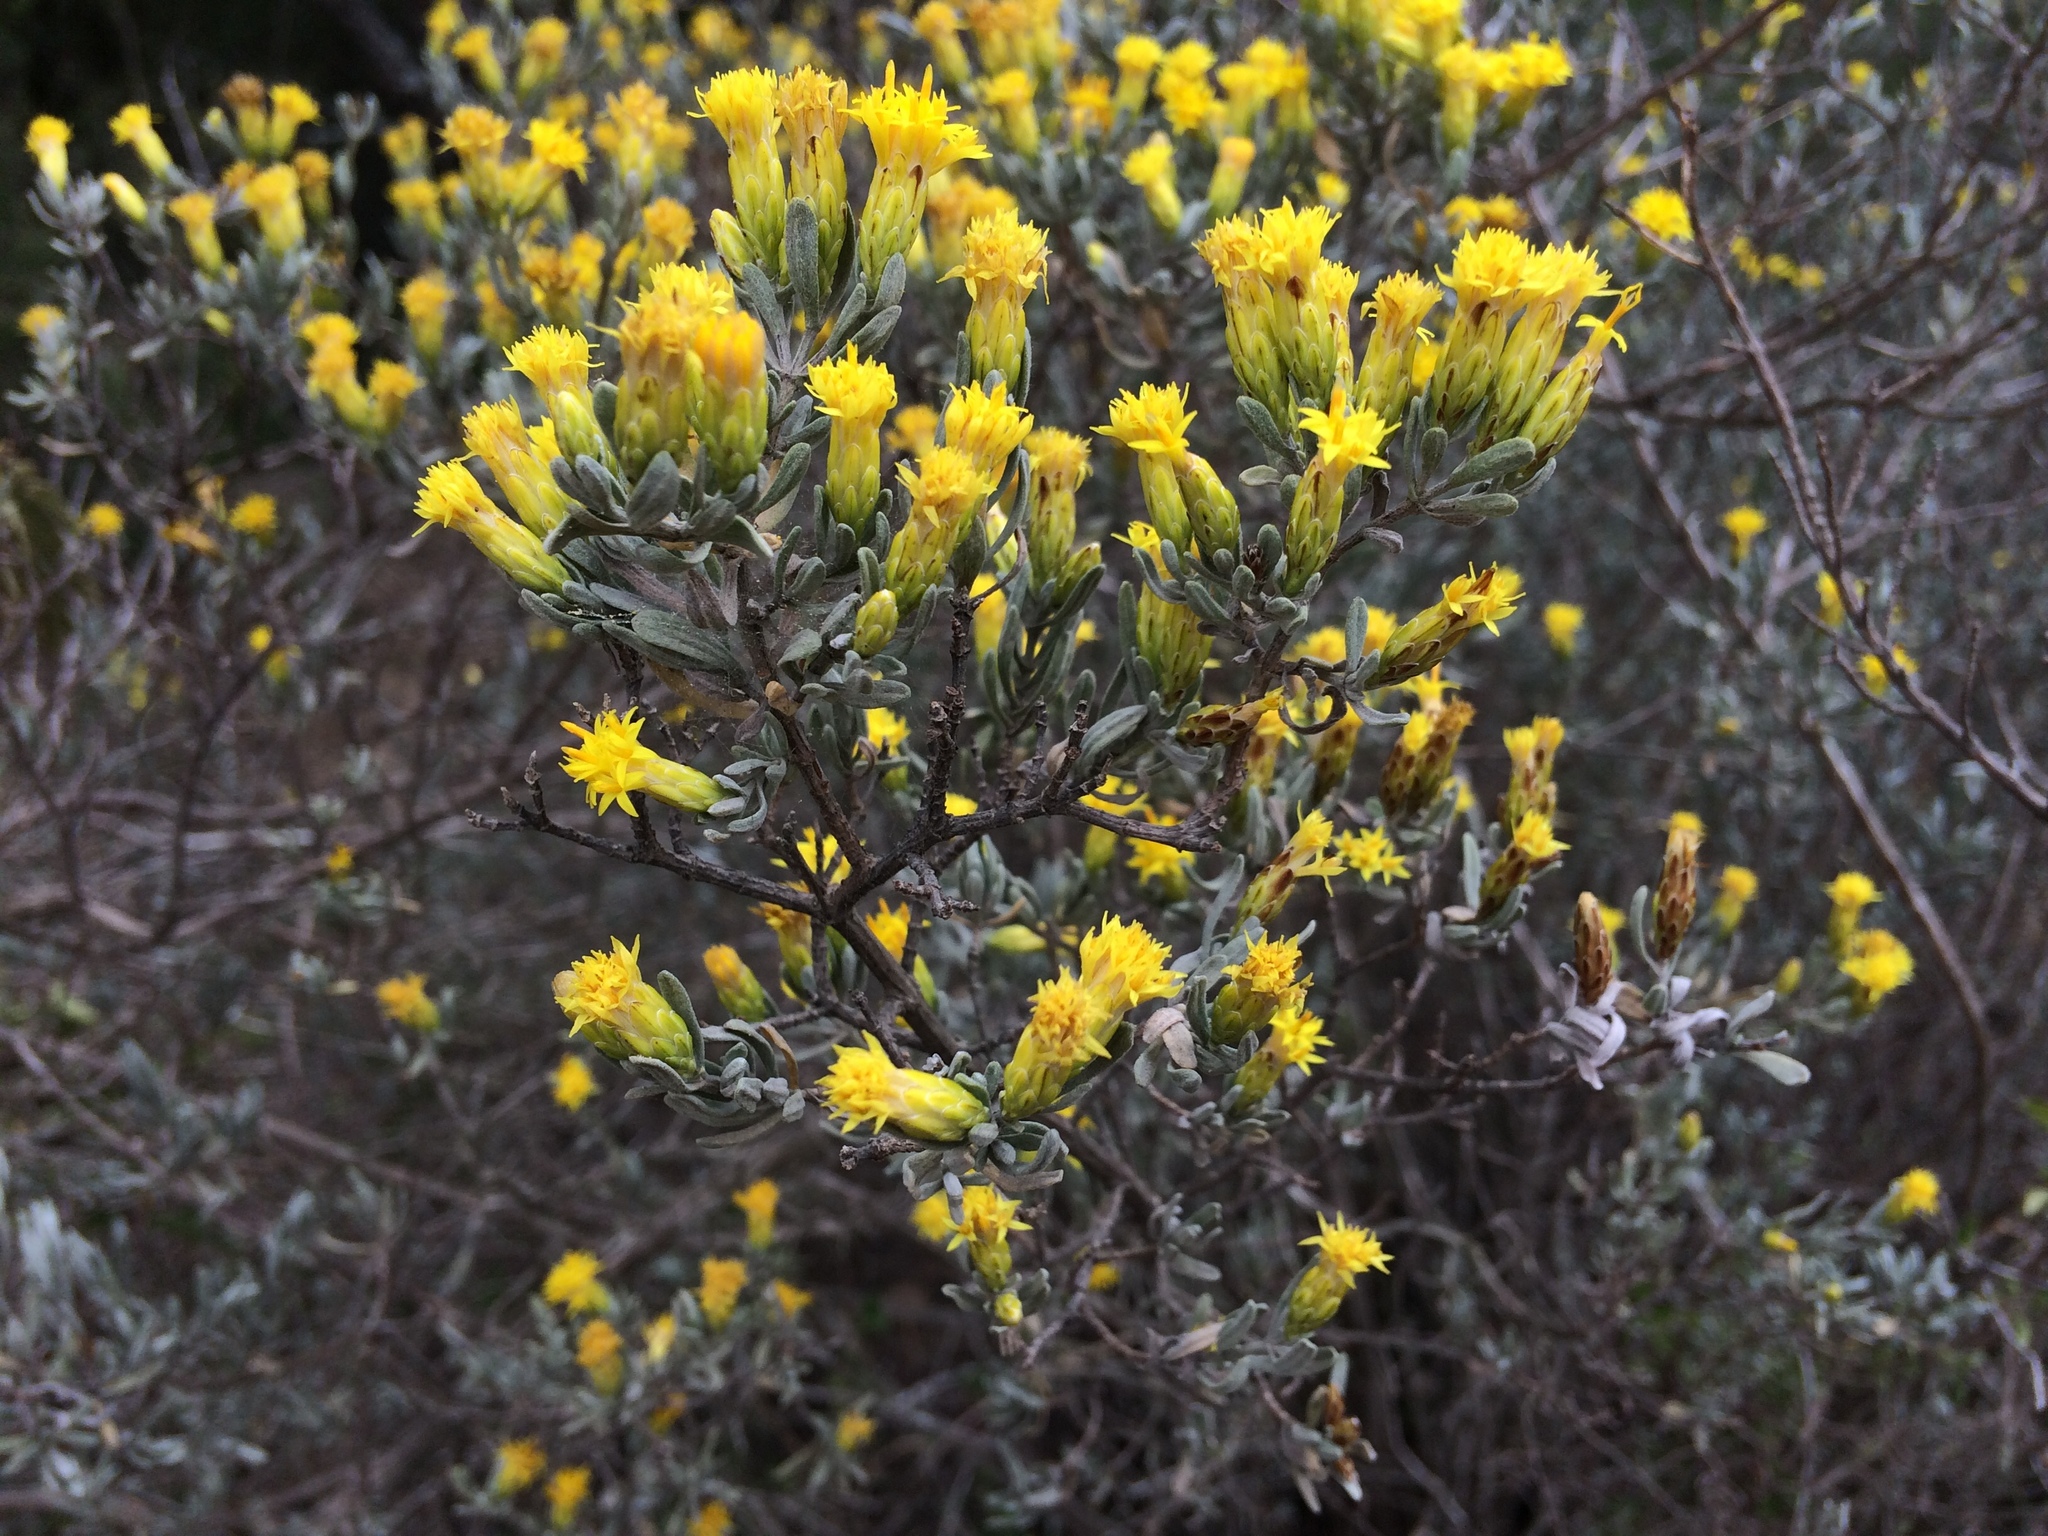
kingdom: Plantae
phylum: Tracheophyta
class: Magnoliopsida
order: Asterales
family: Asteraceae
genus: Pteronia
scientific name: Pteronia incana
